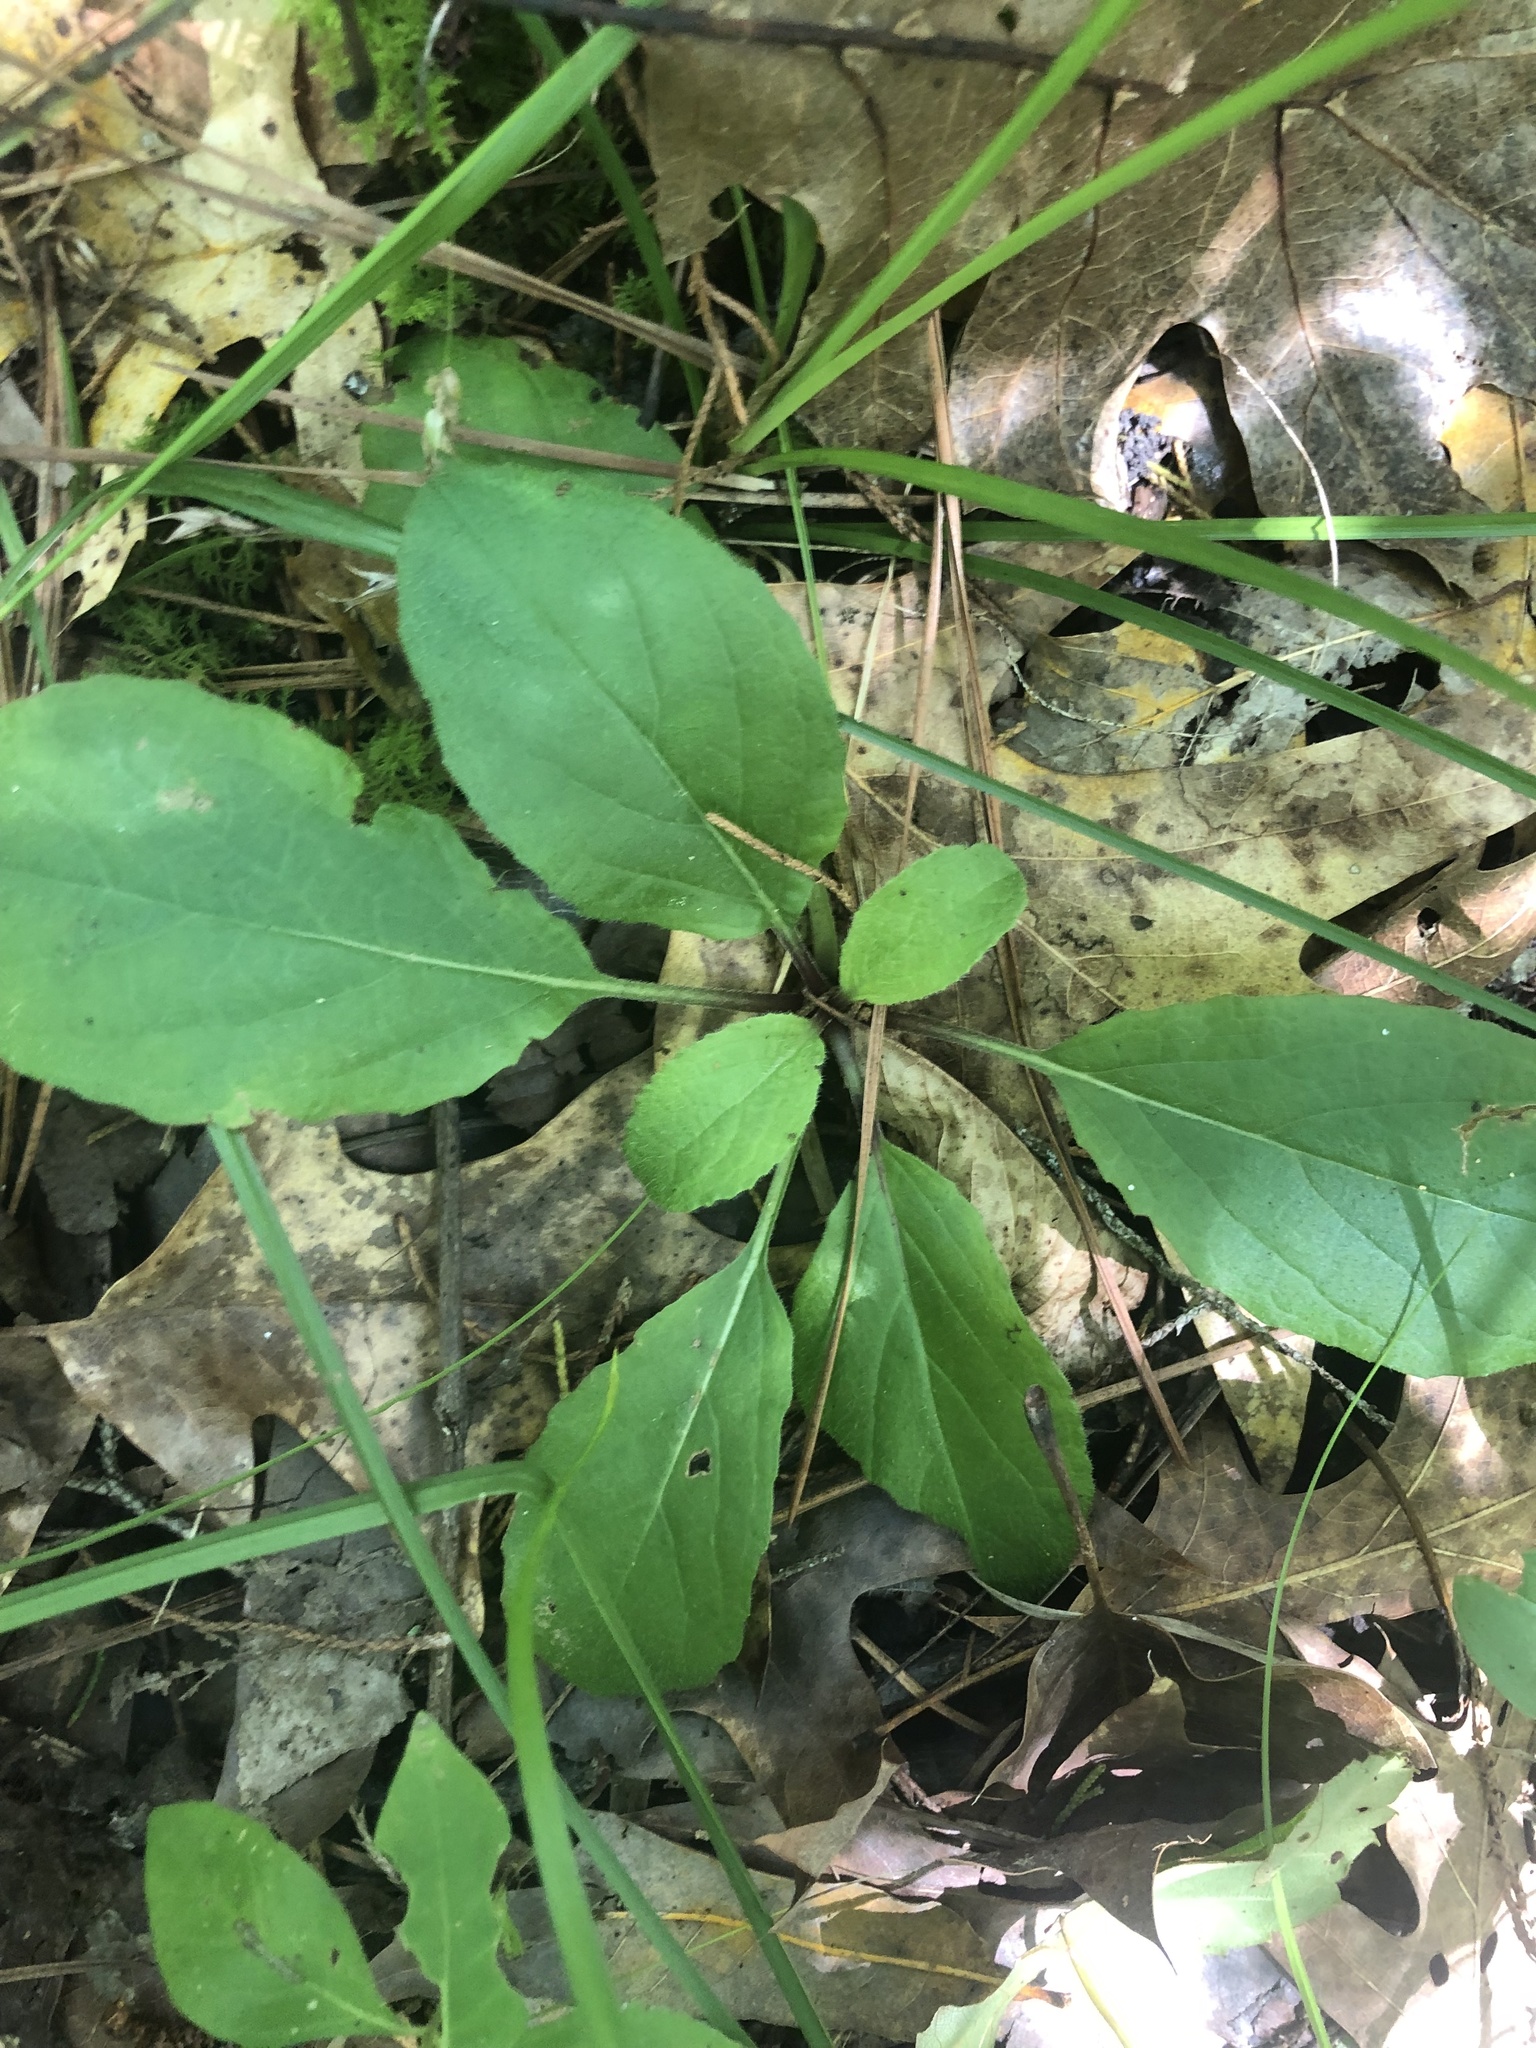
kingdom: Plantae
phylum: Tracheophyta
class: Magnoliopsida
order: Asterales
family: Asteraceae
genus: Chrysogonum
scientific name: Chrysogonum australe
